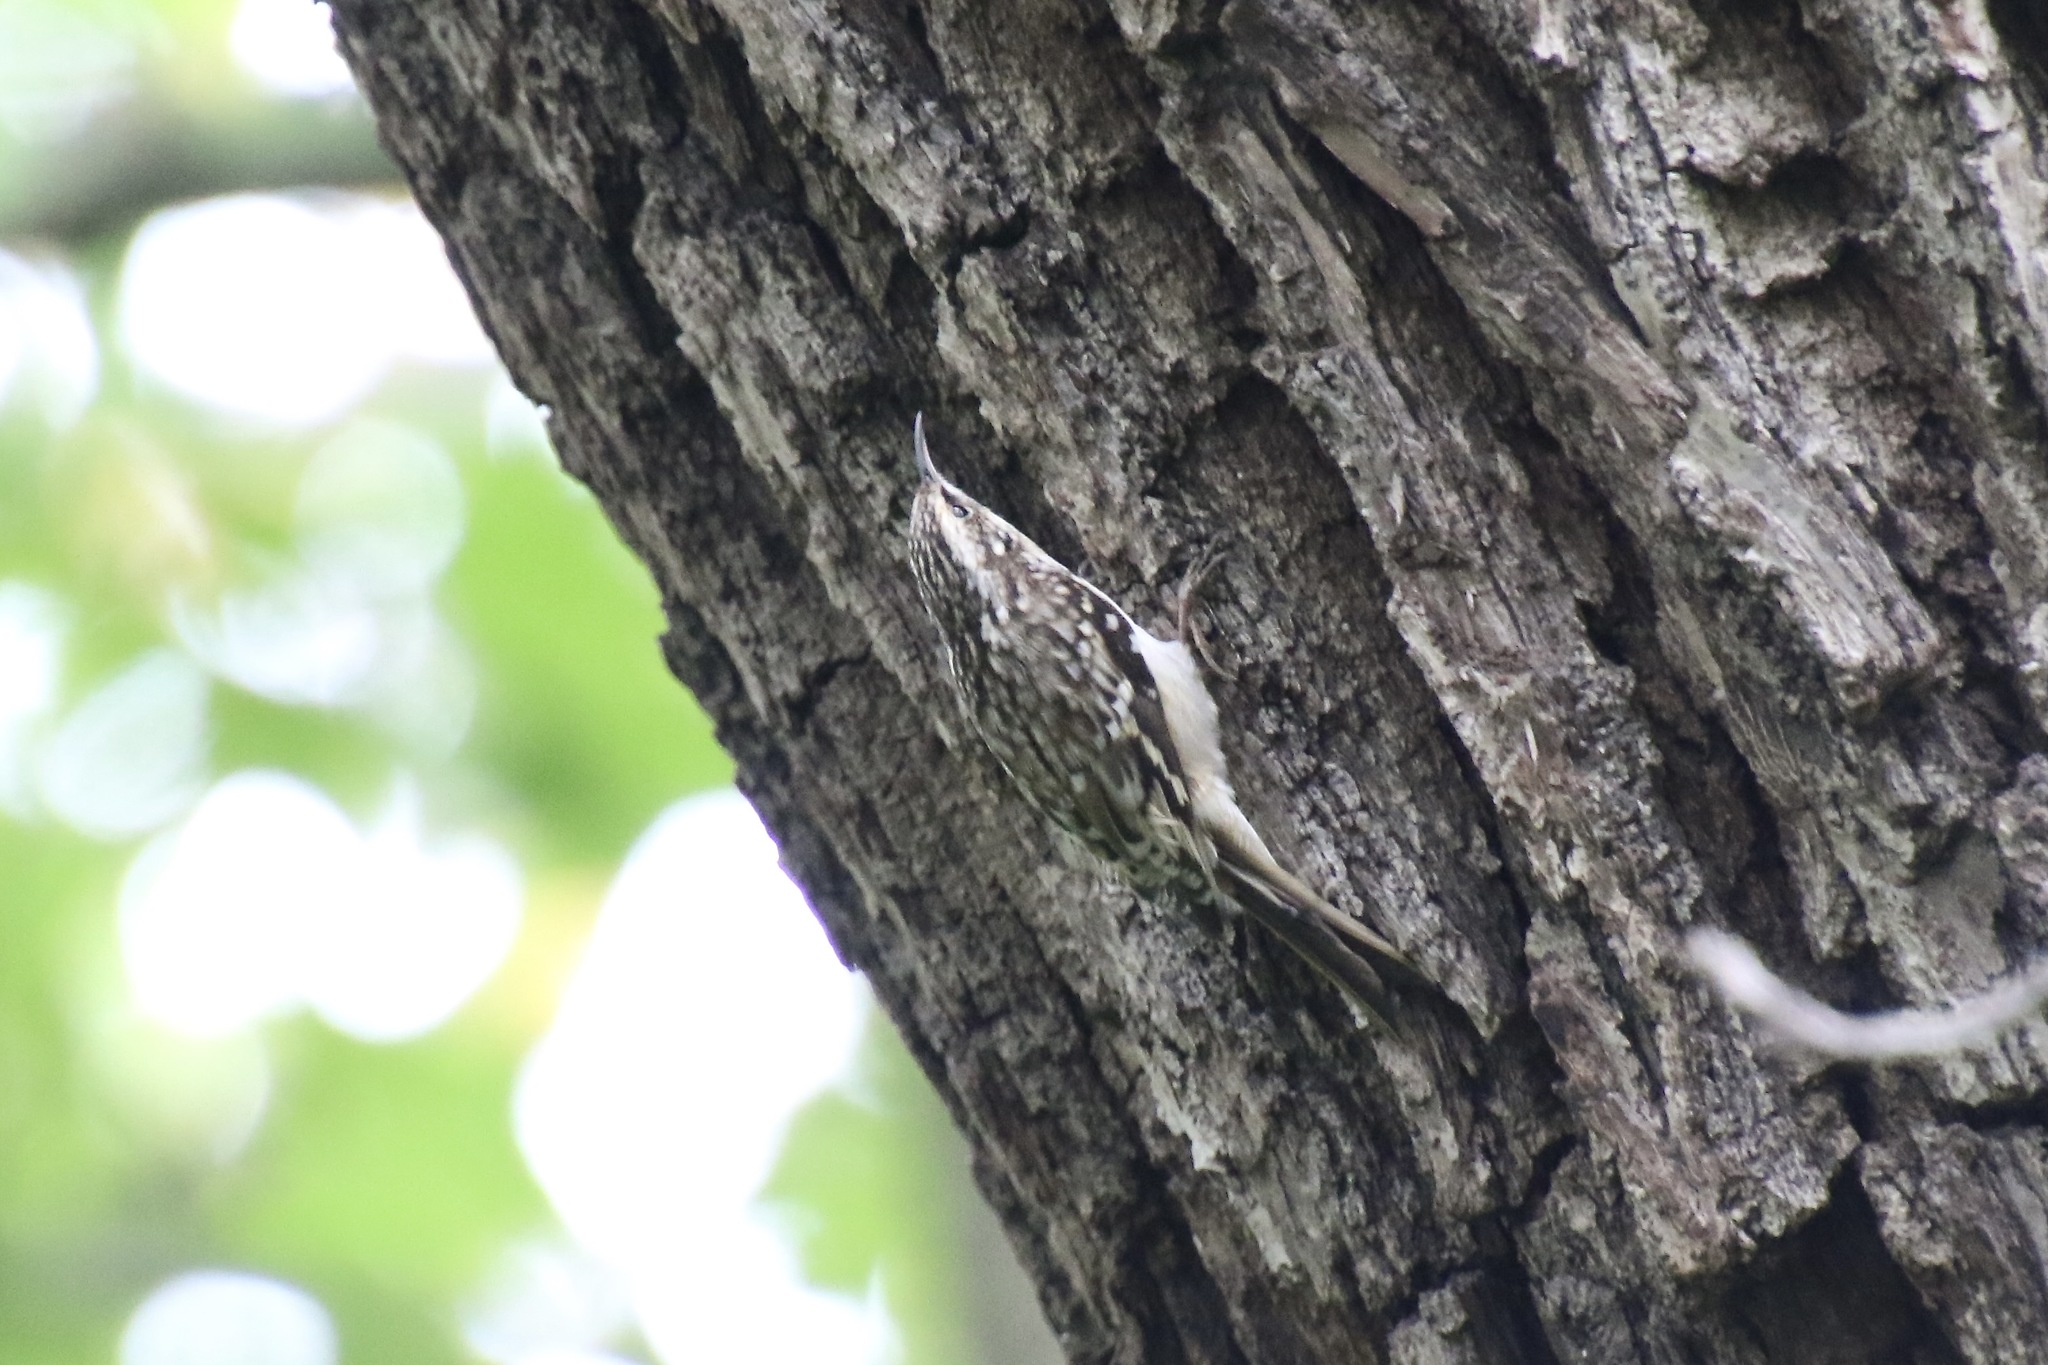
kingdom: Animalia
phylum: Chordata
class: Aves
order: Passeriformes
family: Certhiidae
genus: Certhia
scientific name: Certhia americana
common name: Brown creeper
